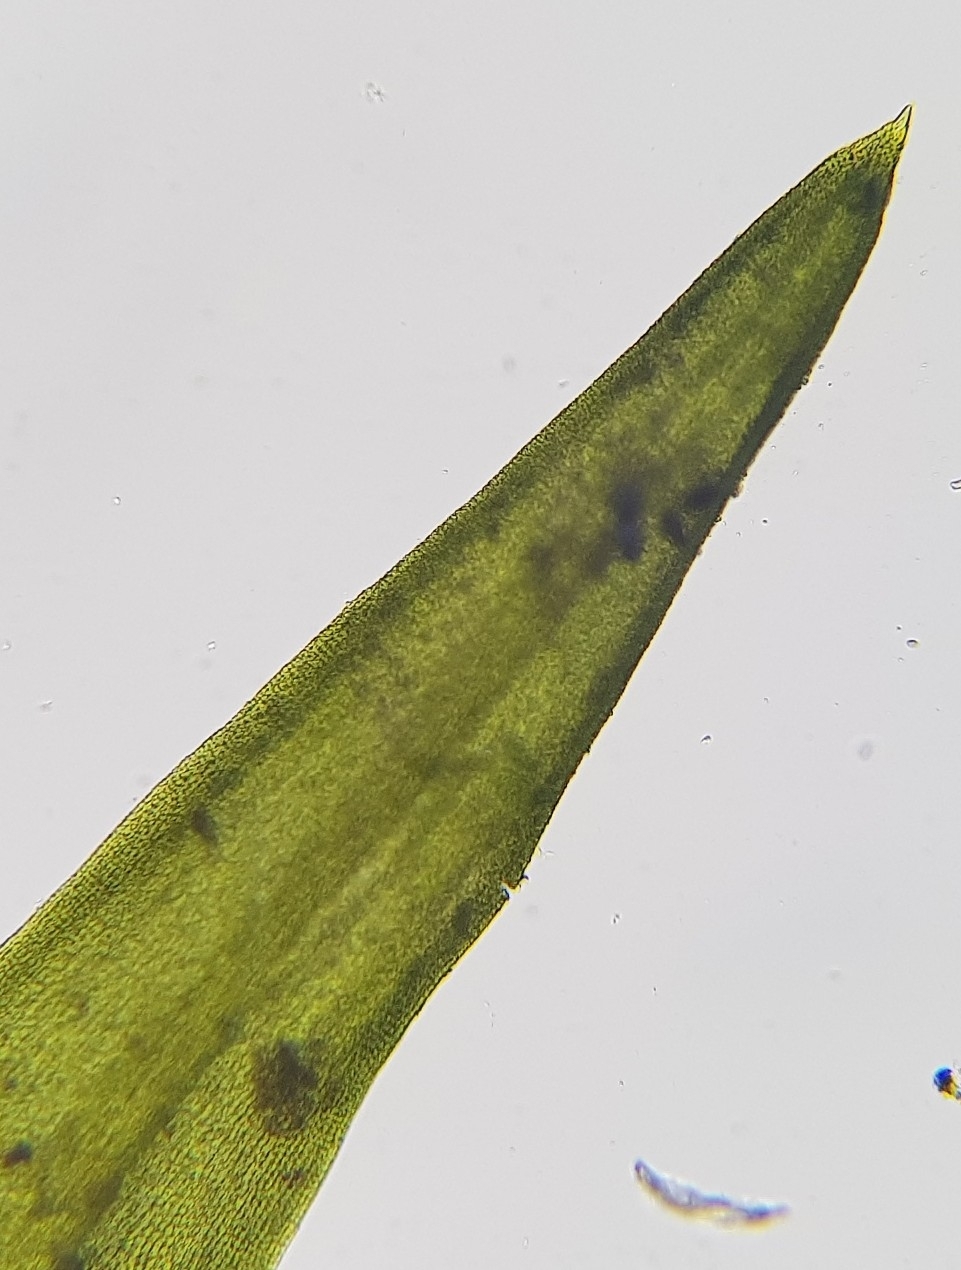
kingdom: Plantae
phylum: Bryophyta
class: Bryopsida
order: Pottiales
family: Pottiaceae
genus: Trichostomum
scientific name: Trichostomum crispulum
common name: Curly crisp-moss
